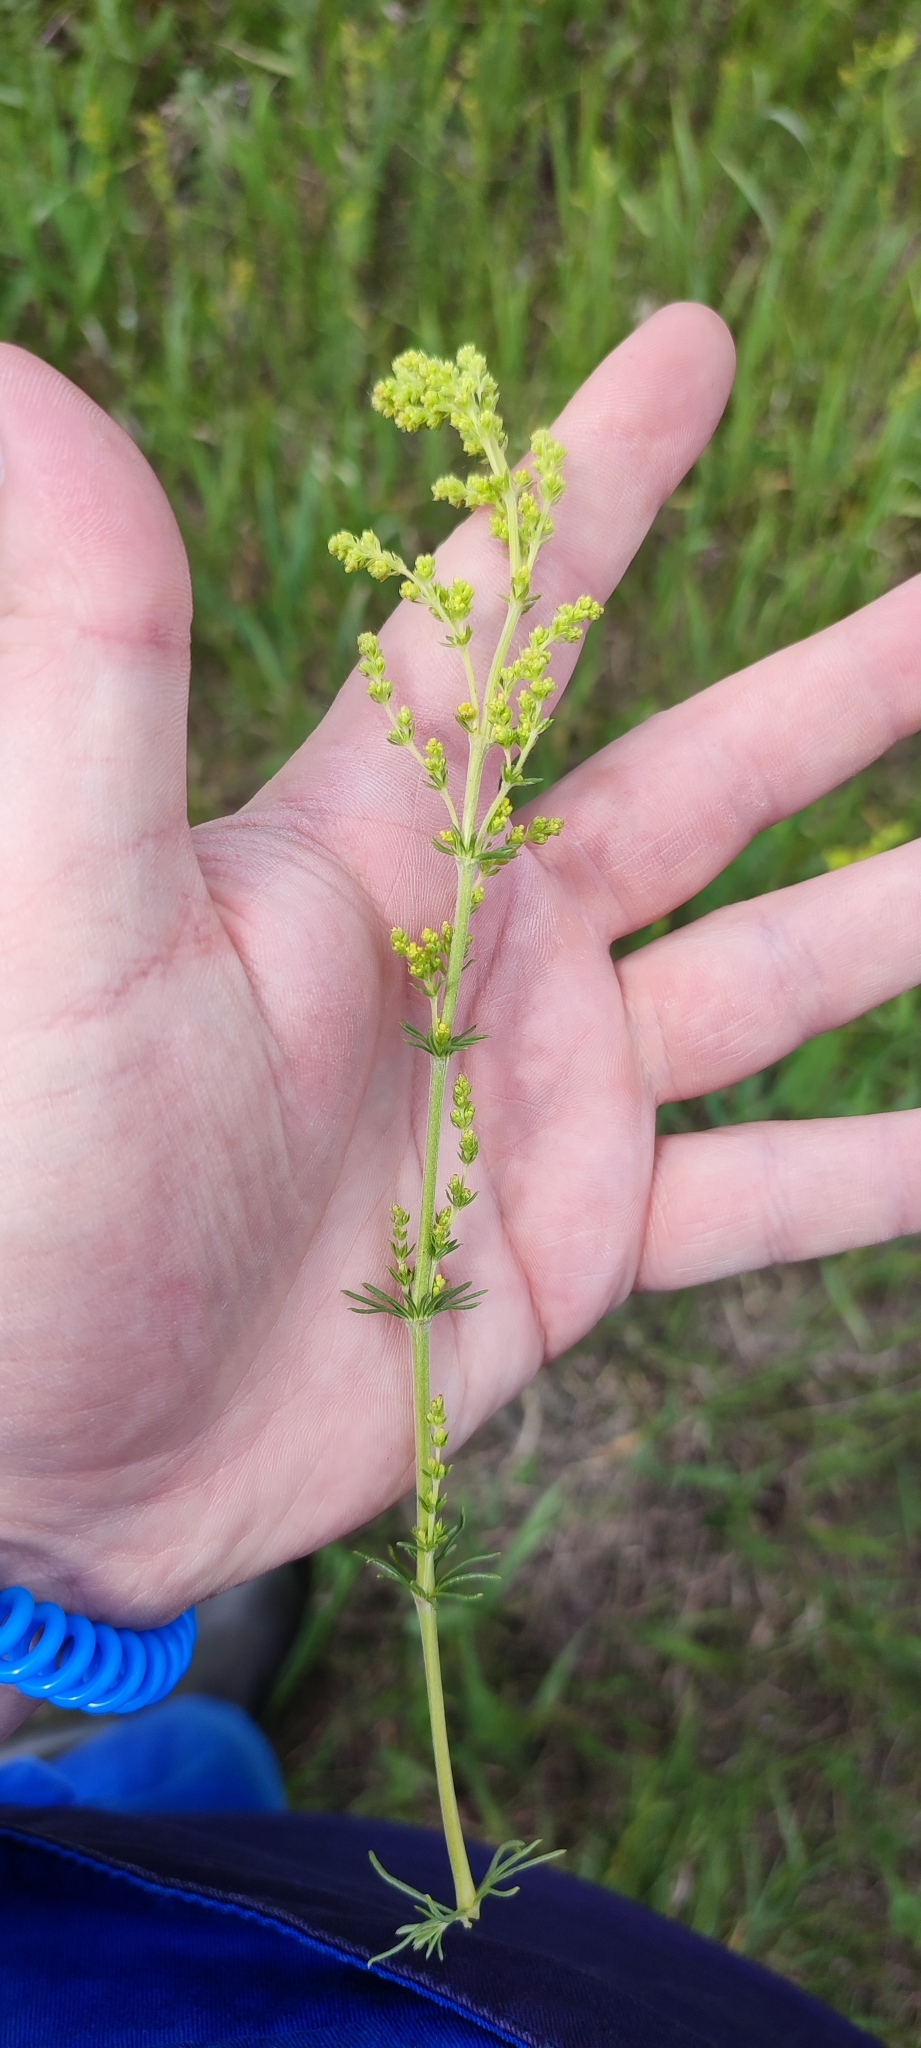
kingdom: Plantae
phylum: Tracheophyta
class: Magnoliopsida
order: Gentianales
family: Rubiaceae
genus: Galium
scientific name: Galium verum
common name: Lady's bedstraw
